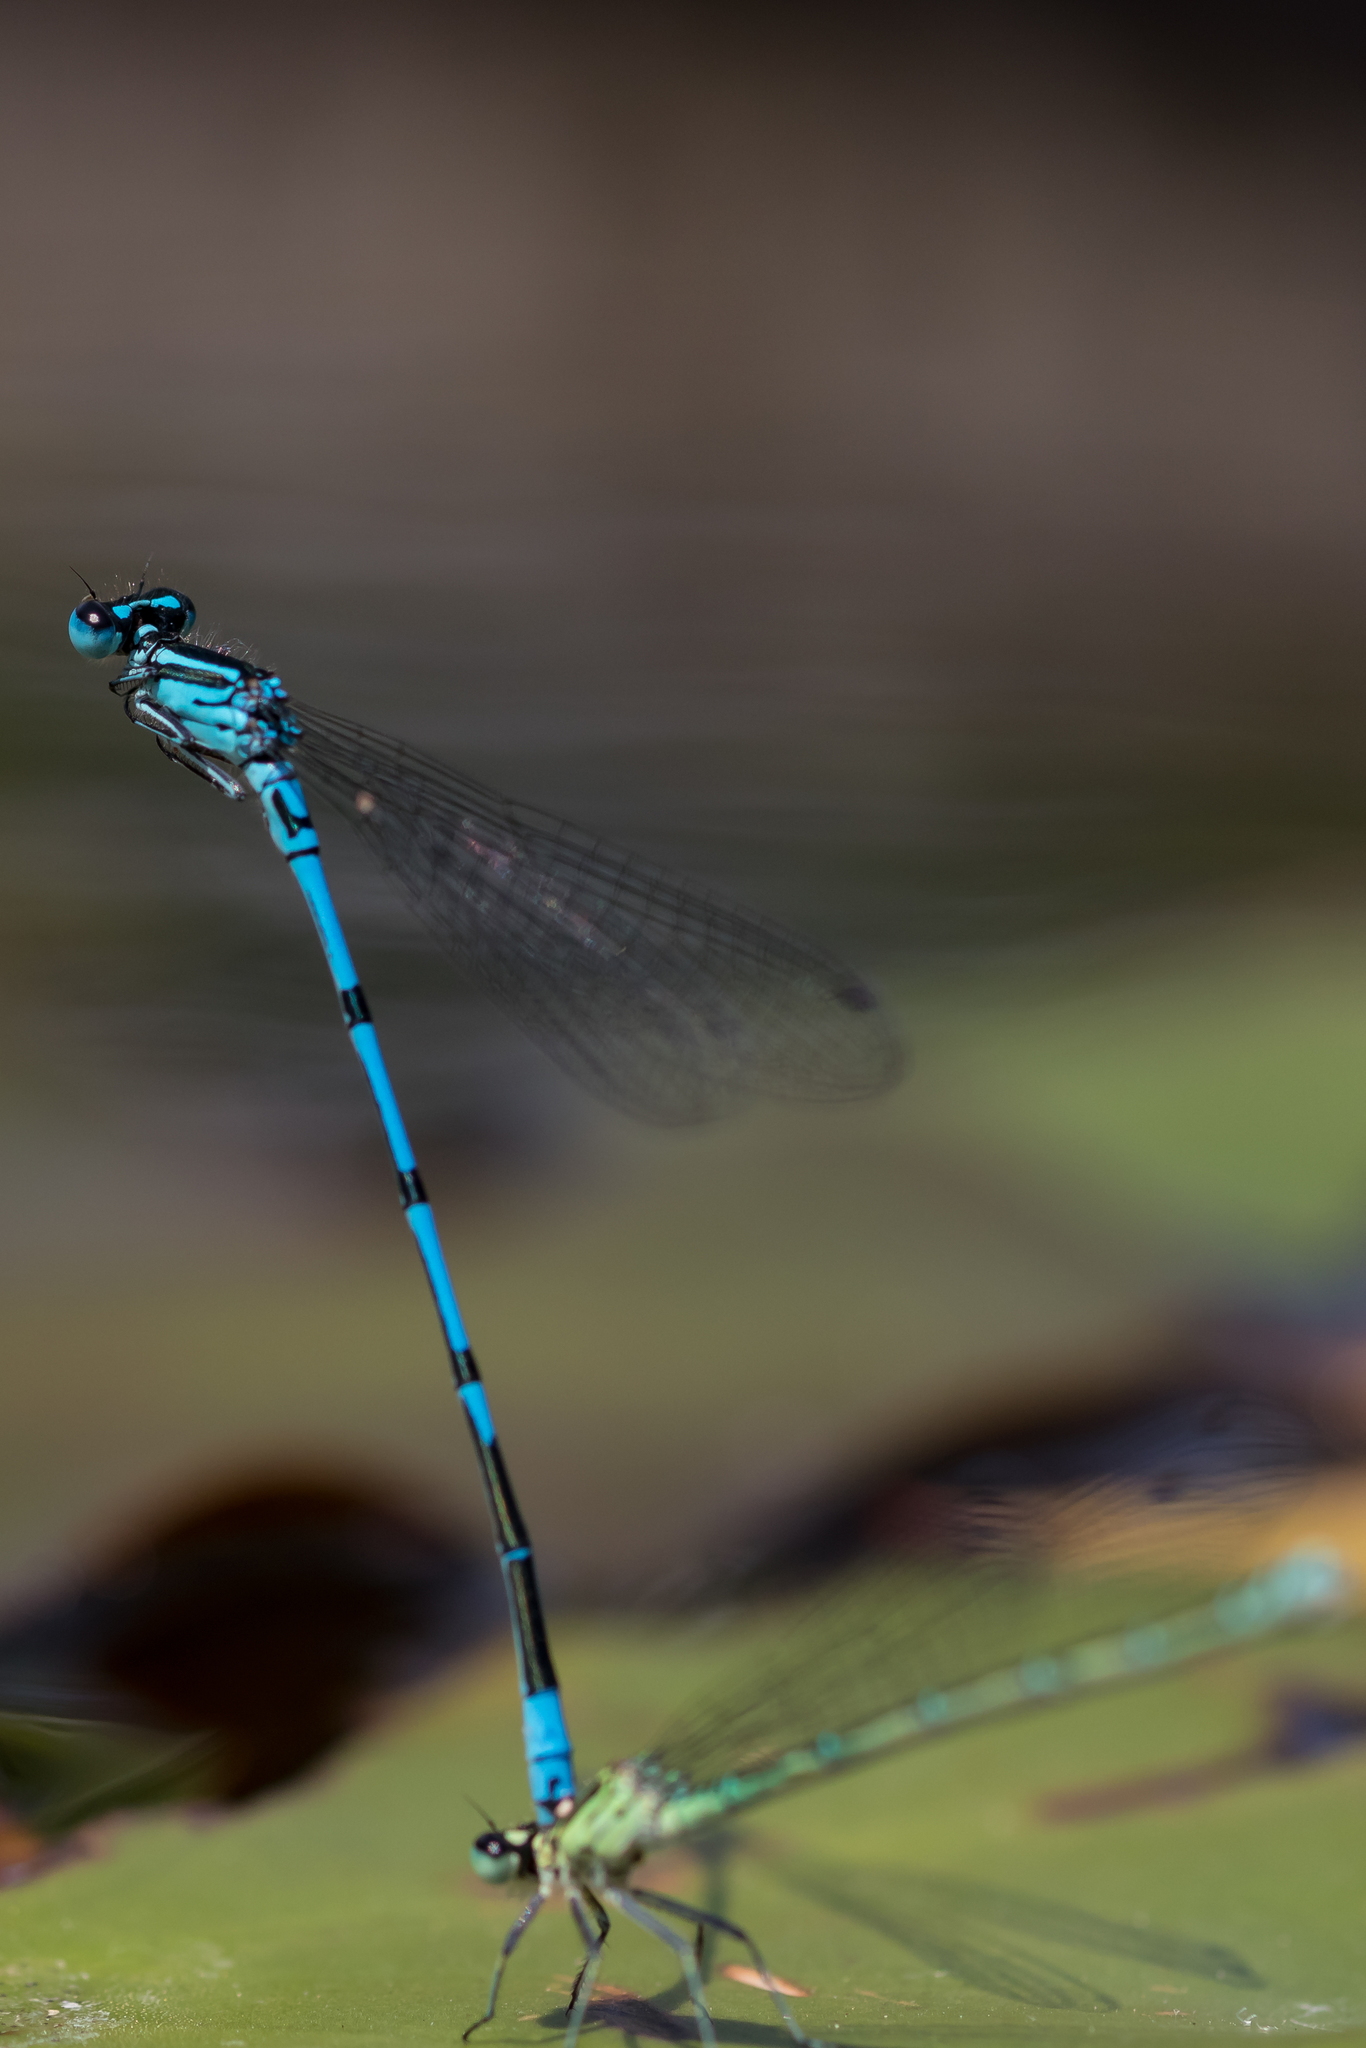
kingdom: Animalia
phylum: Arthropoda
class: Insecta
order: Odonata
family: Coenagrionidae
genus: Coenagrion
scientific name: Coenagrion puella
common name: Azure damselfly
